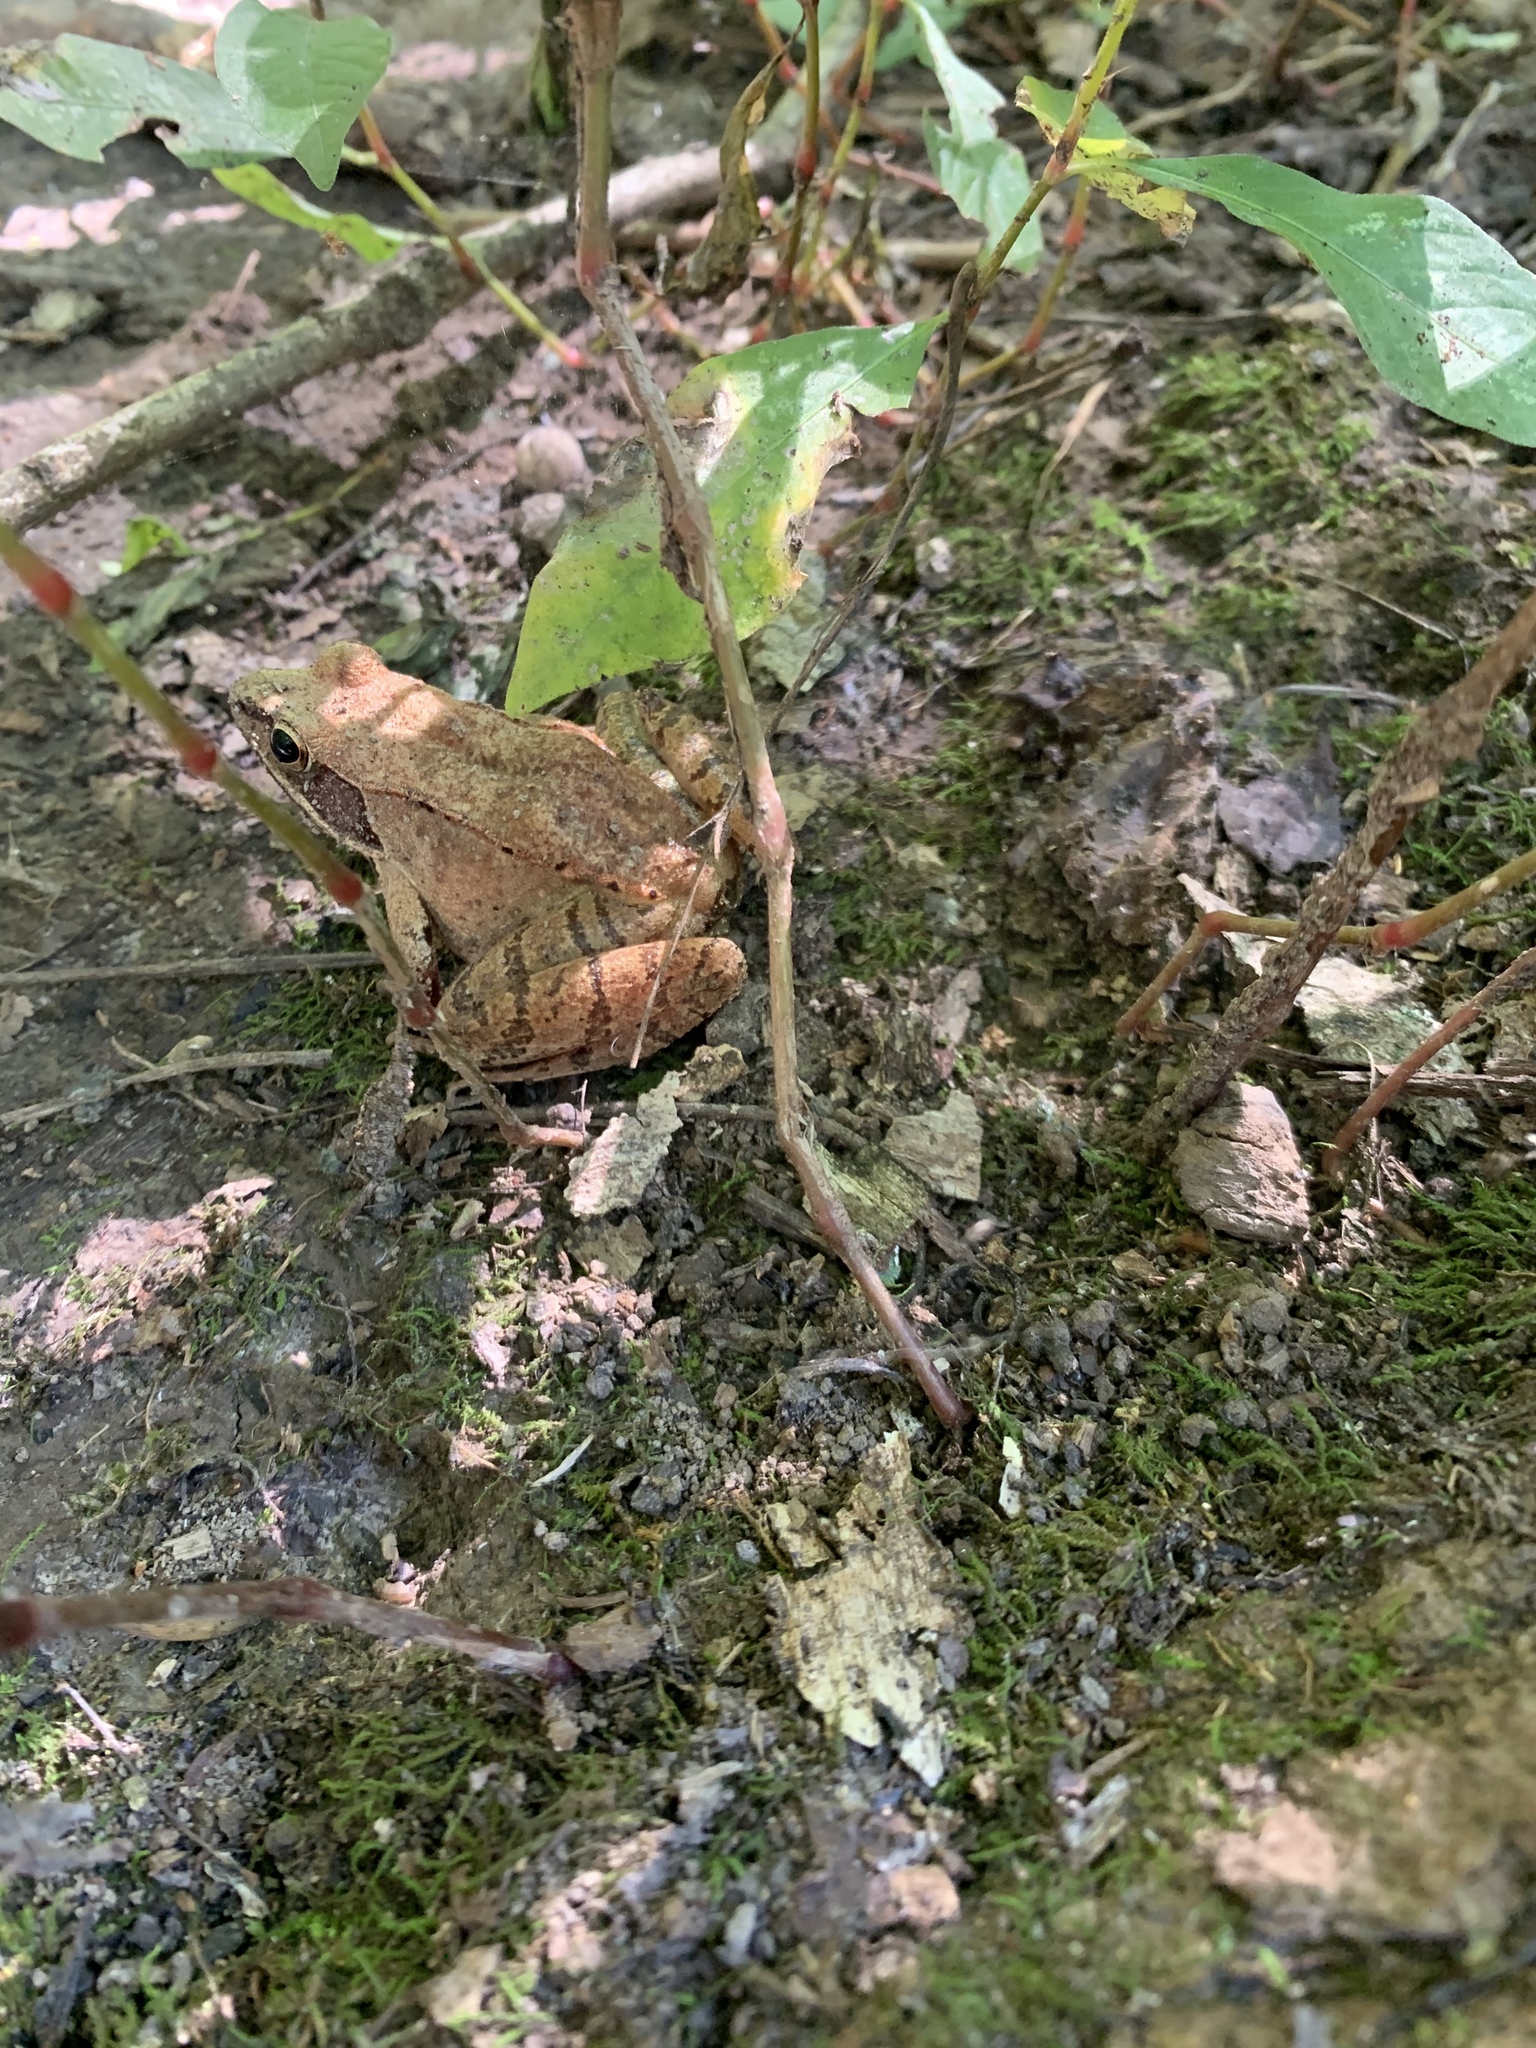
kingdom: Animalia
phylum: Chordata
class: Amphibia
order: Anura
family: Ranidae
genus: Lithobates
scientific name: Lithobates sylvaticus
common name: Wood frog
